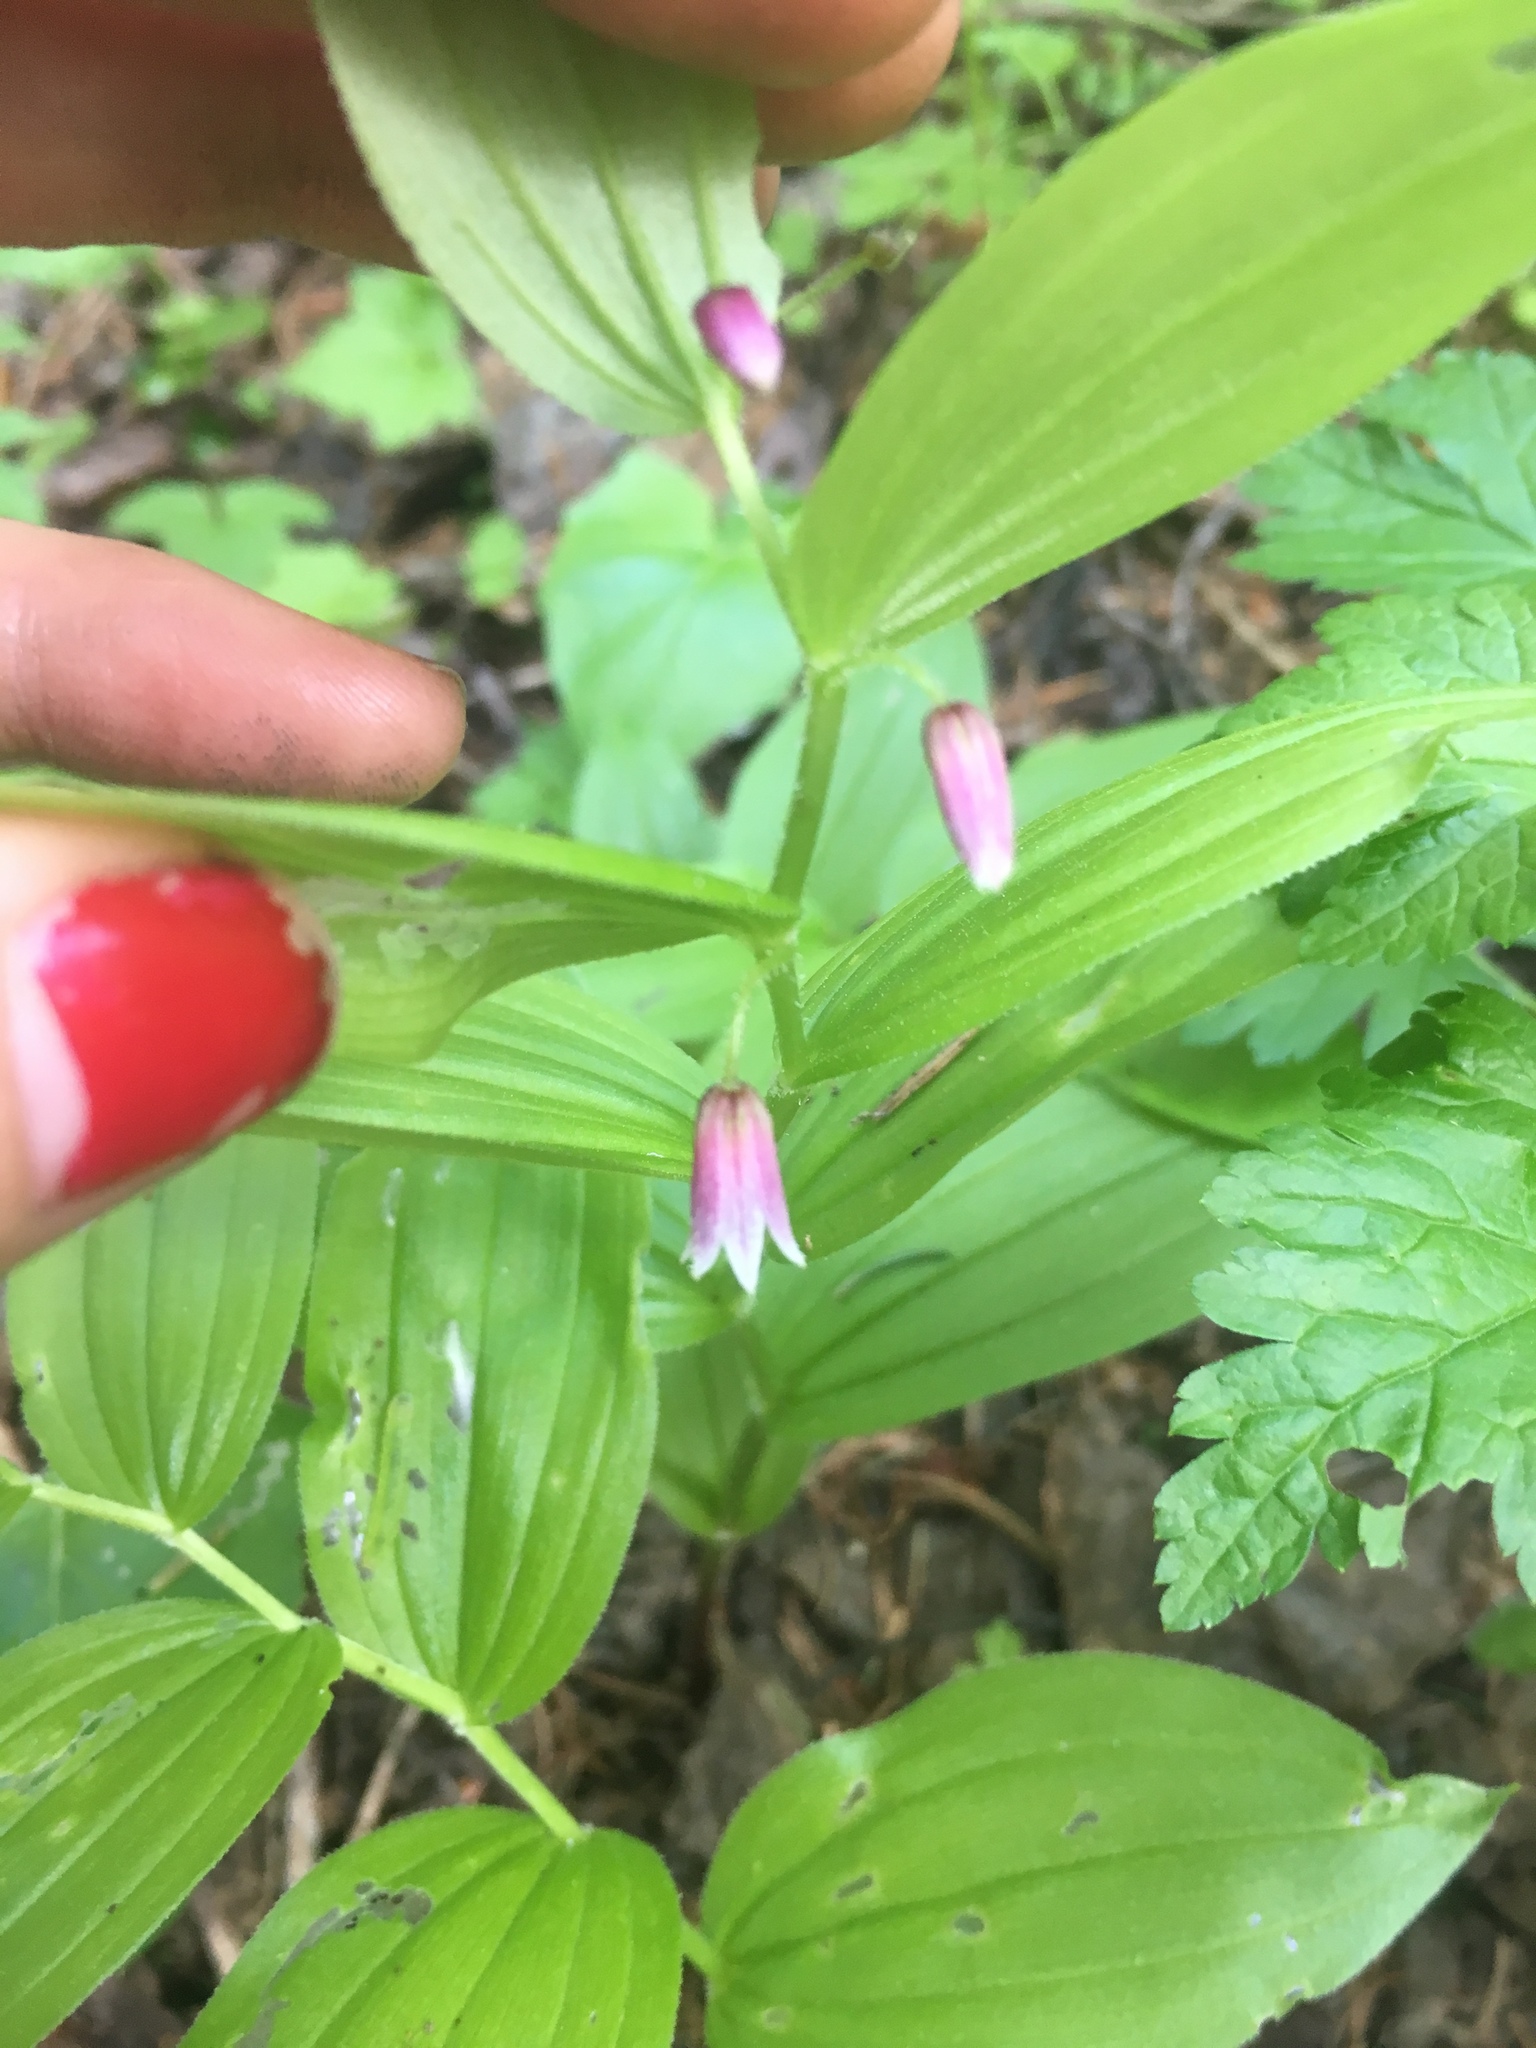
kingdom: Plantae
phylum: Tracheophyta
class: Liliopsida
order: Liliales
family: Liliaceae
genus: Streptopus
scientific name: Streptopus lanceolatus
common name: Rose mandarin
